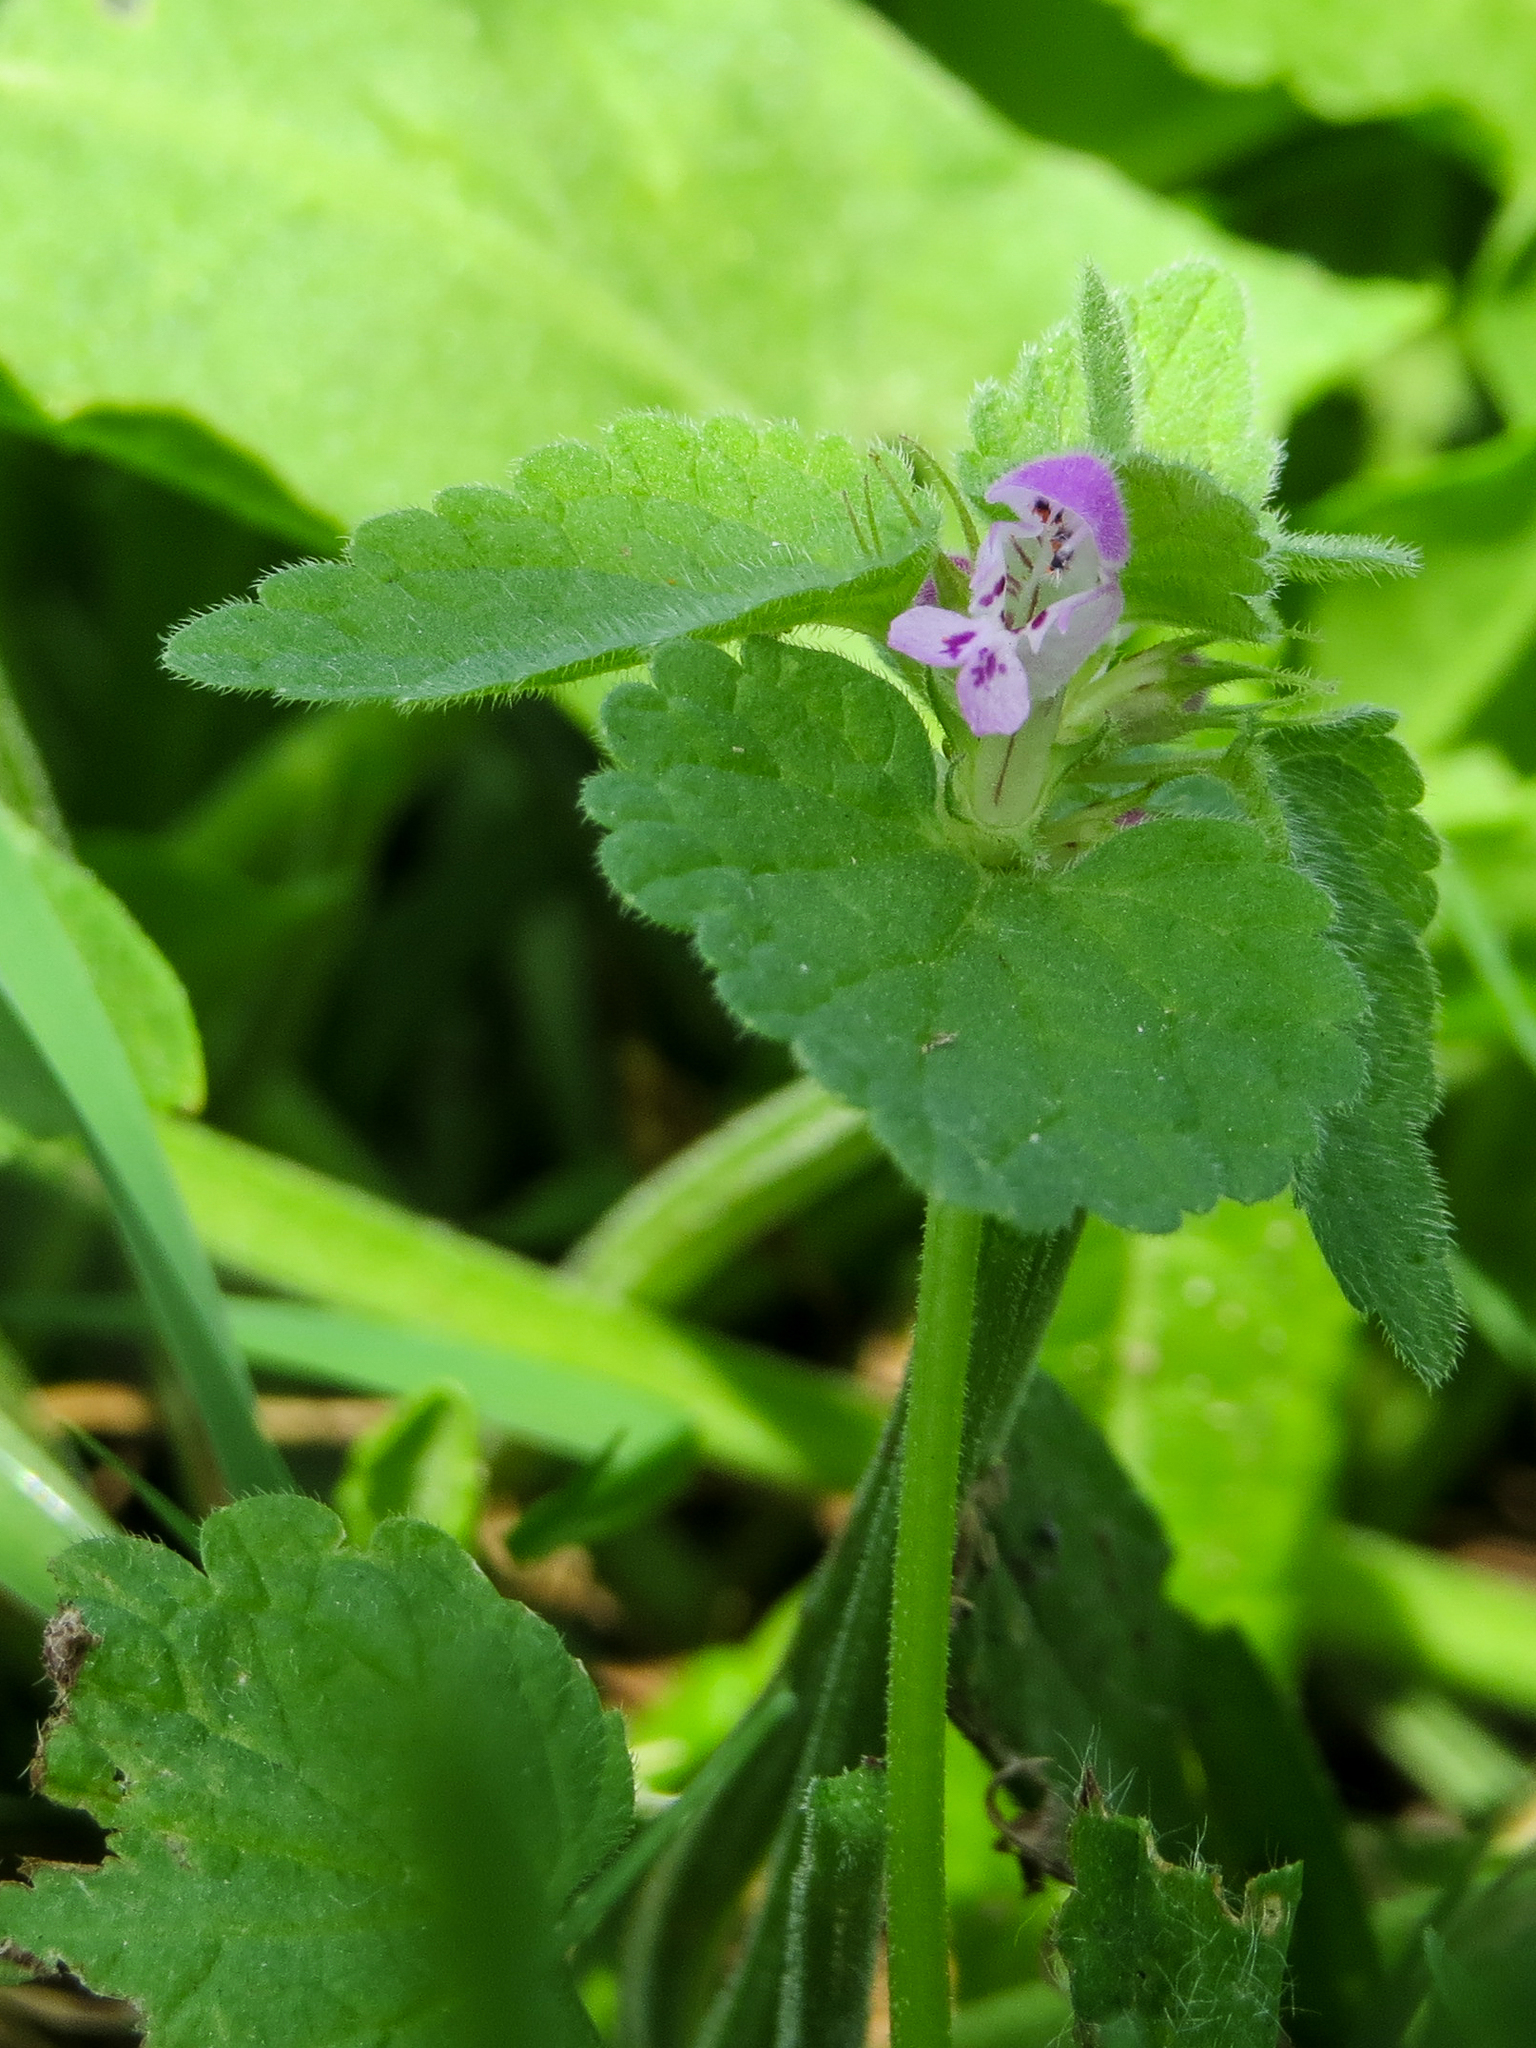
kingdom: Plantae
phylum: Tracheophyta
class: Magnoliopsida
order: Lamiales
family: Lamiaceae
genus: Lamium
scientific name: Lamium purpureum
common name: Red dead-nettle
